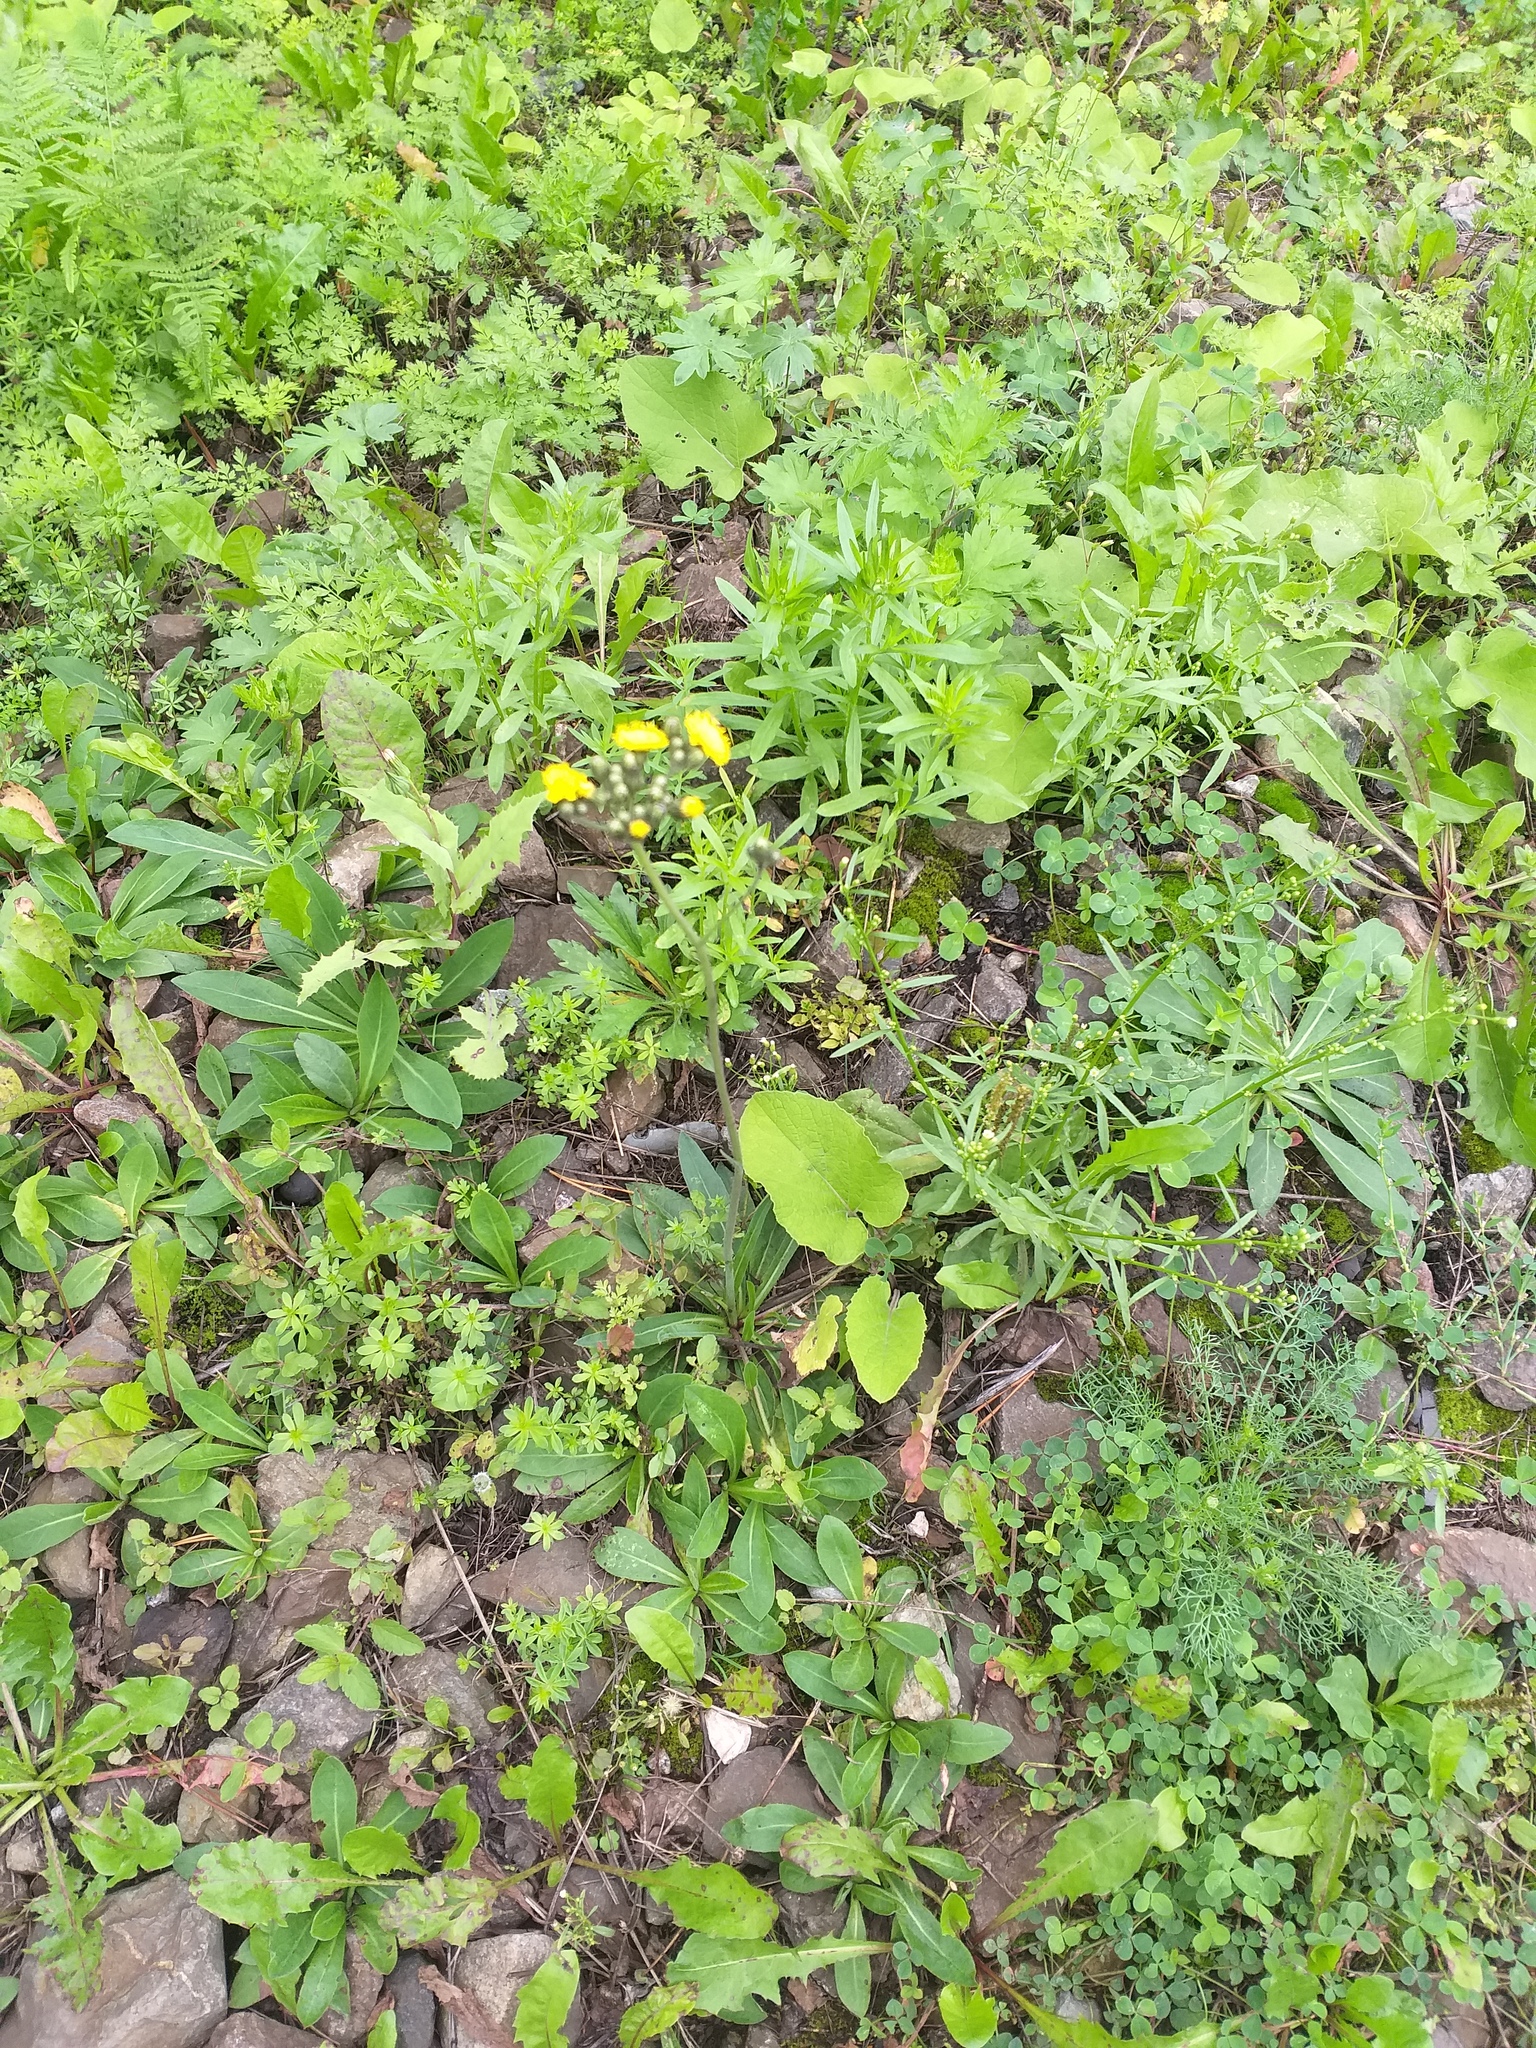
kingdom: Plantae
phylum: Tracheophyta
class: Magnoliopsida
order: Asterales
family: Asteraceae
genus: Pilosella
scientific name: Pilosella
